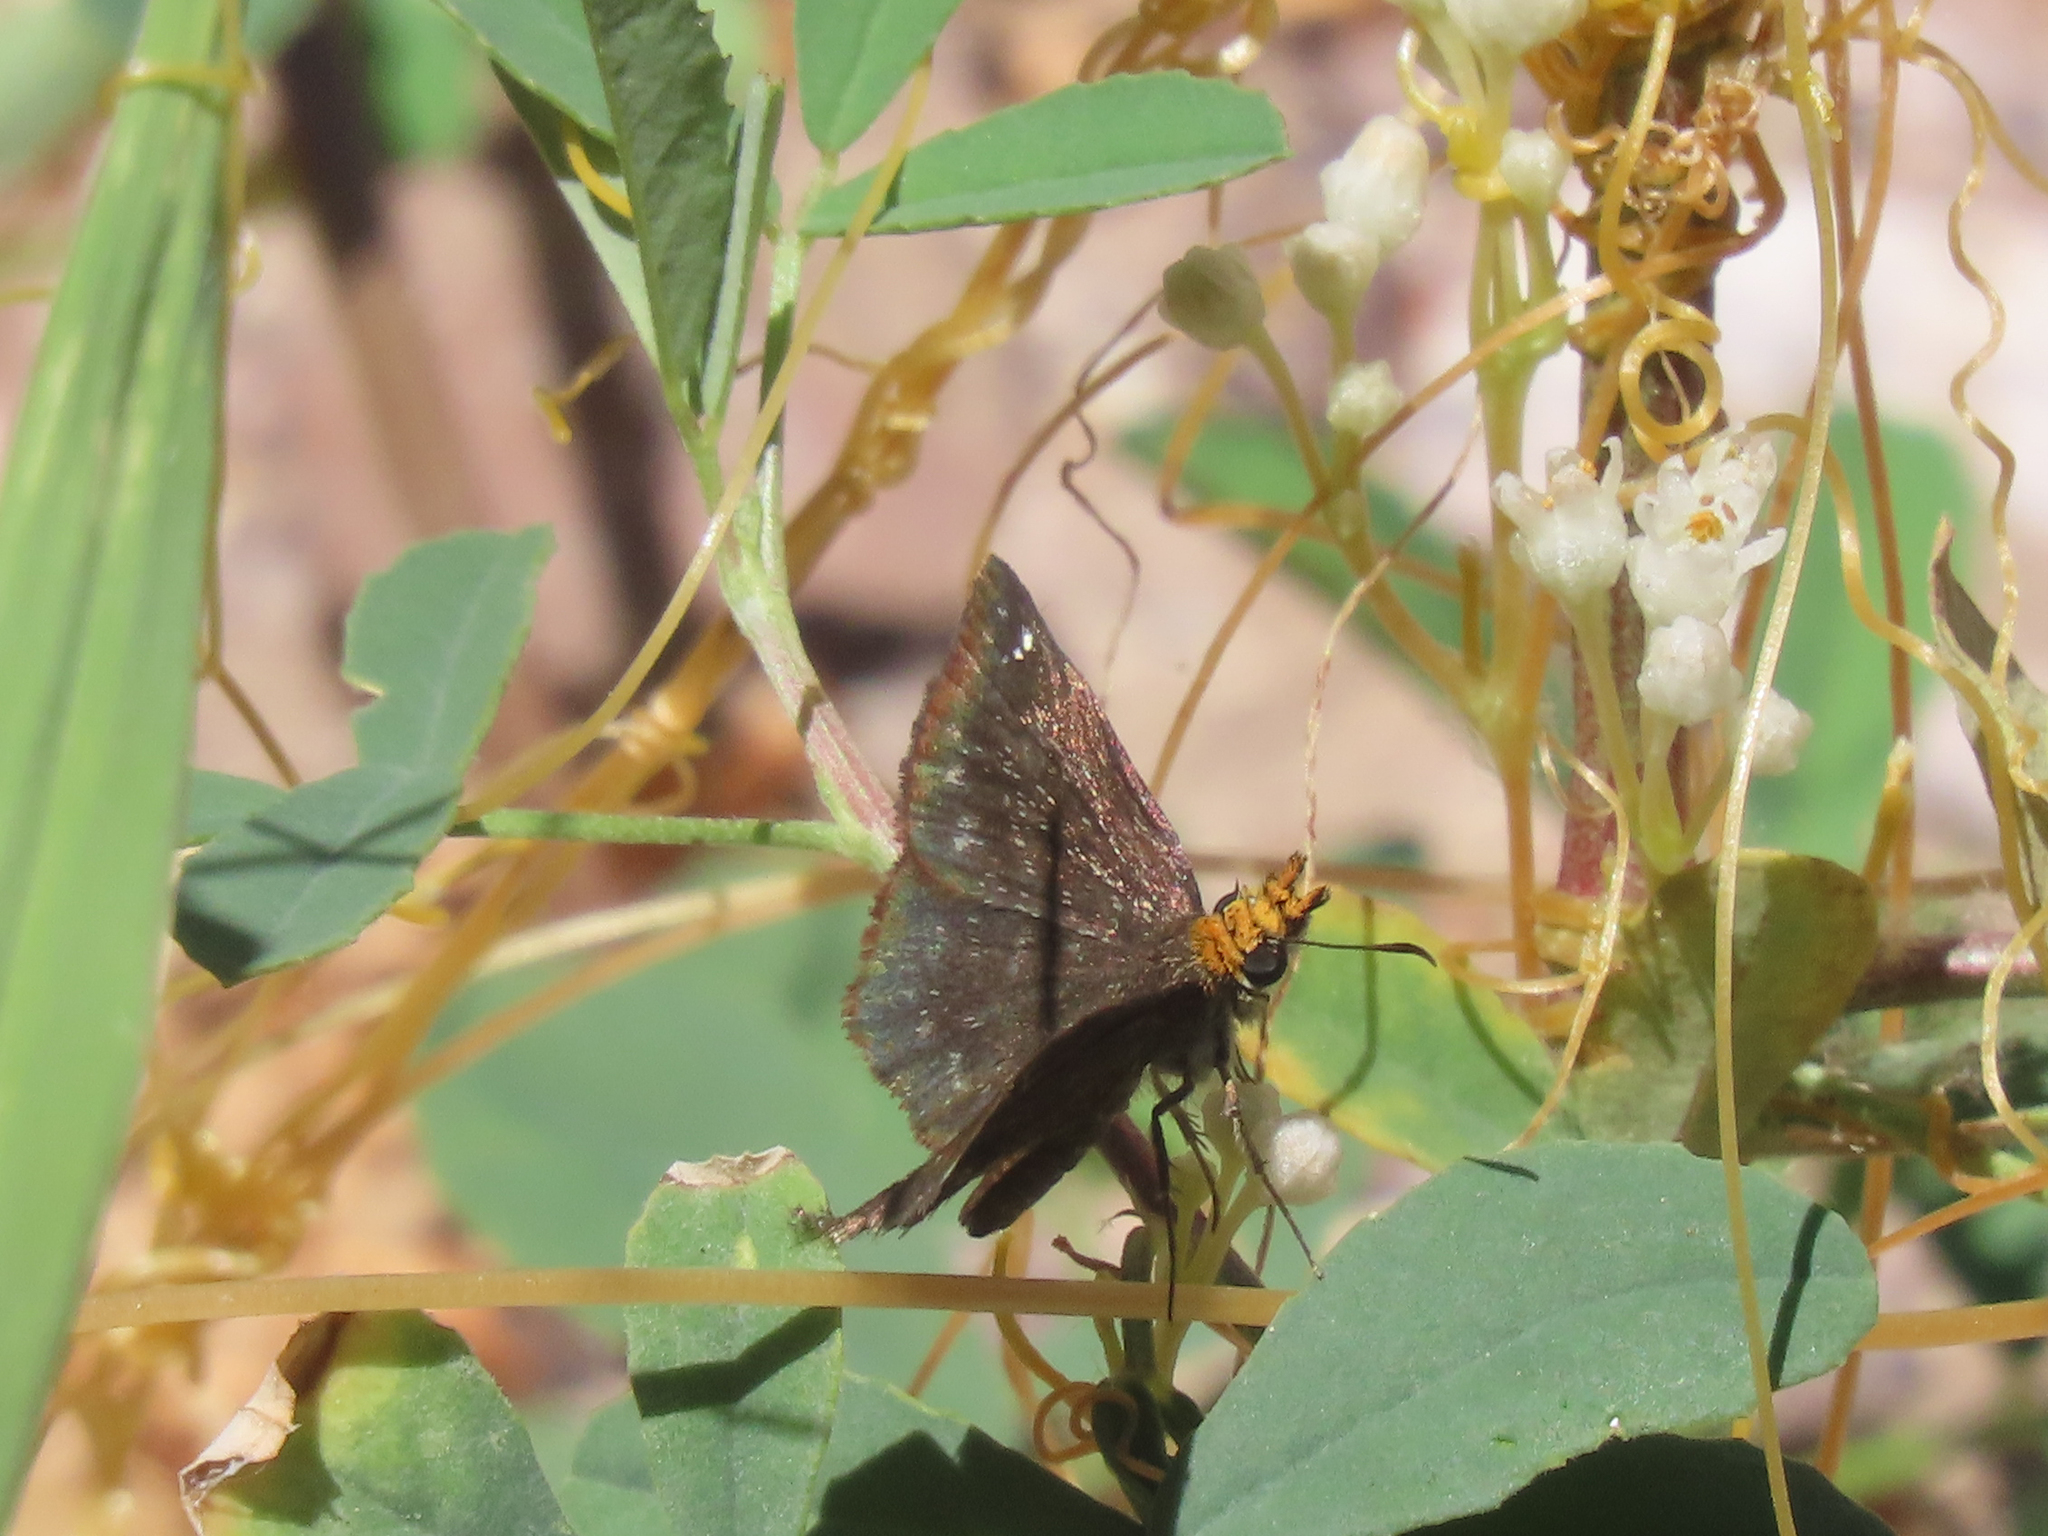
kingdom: Animalia
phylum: Arthropoda
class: Insecta
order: Lepidoptera
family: Hesperiidae
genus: Staphylus
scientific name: Staphylus ceos
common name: Golden-headed scallopwing
